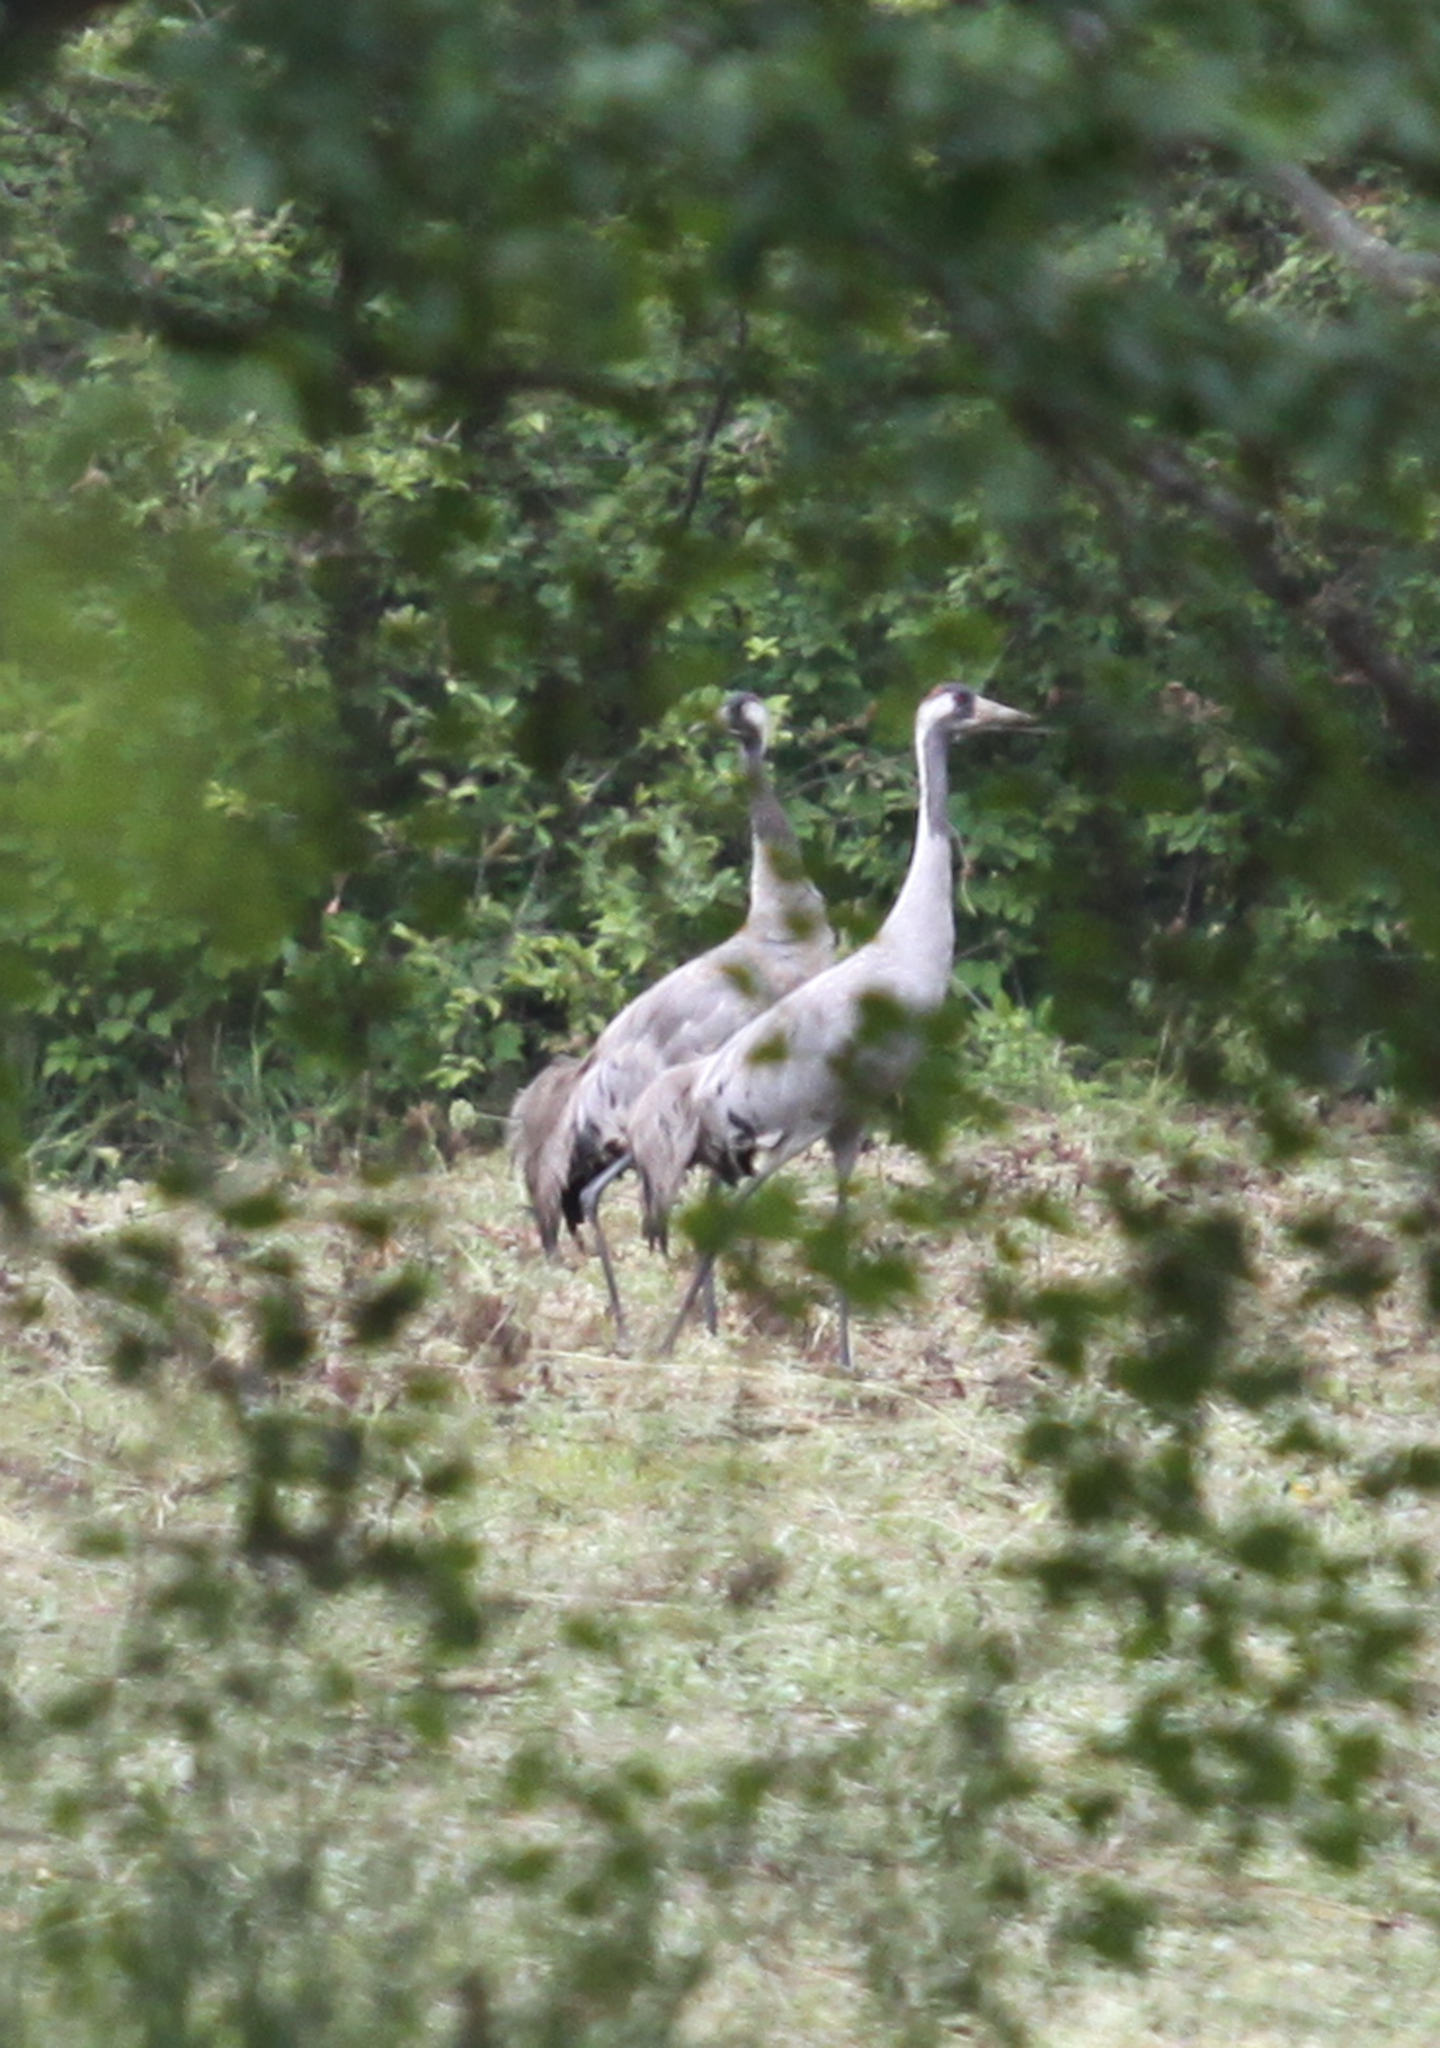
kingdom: Animalia
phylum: Chordata
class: Aves
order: Gruiformes
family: Gruidae
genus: Grus
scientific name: Grus grus
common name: Common crane
